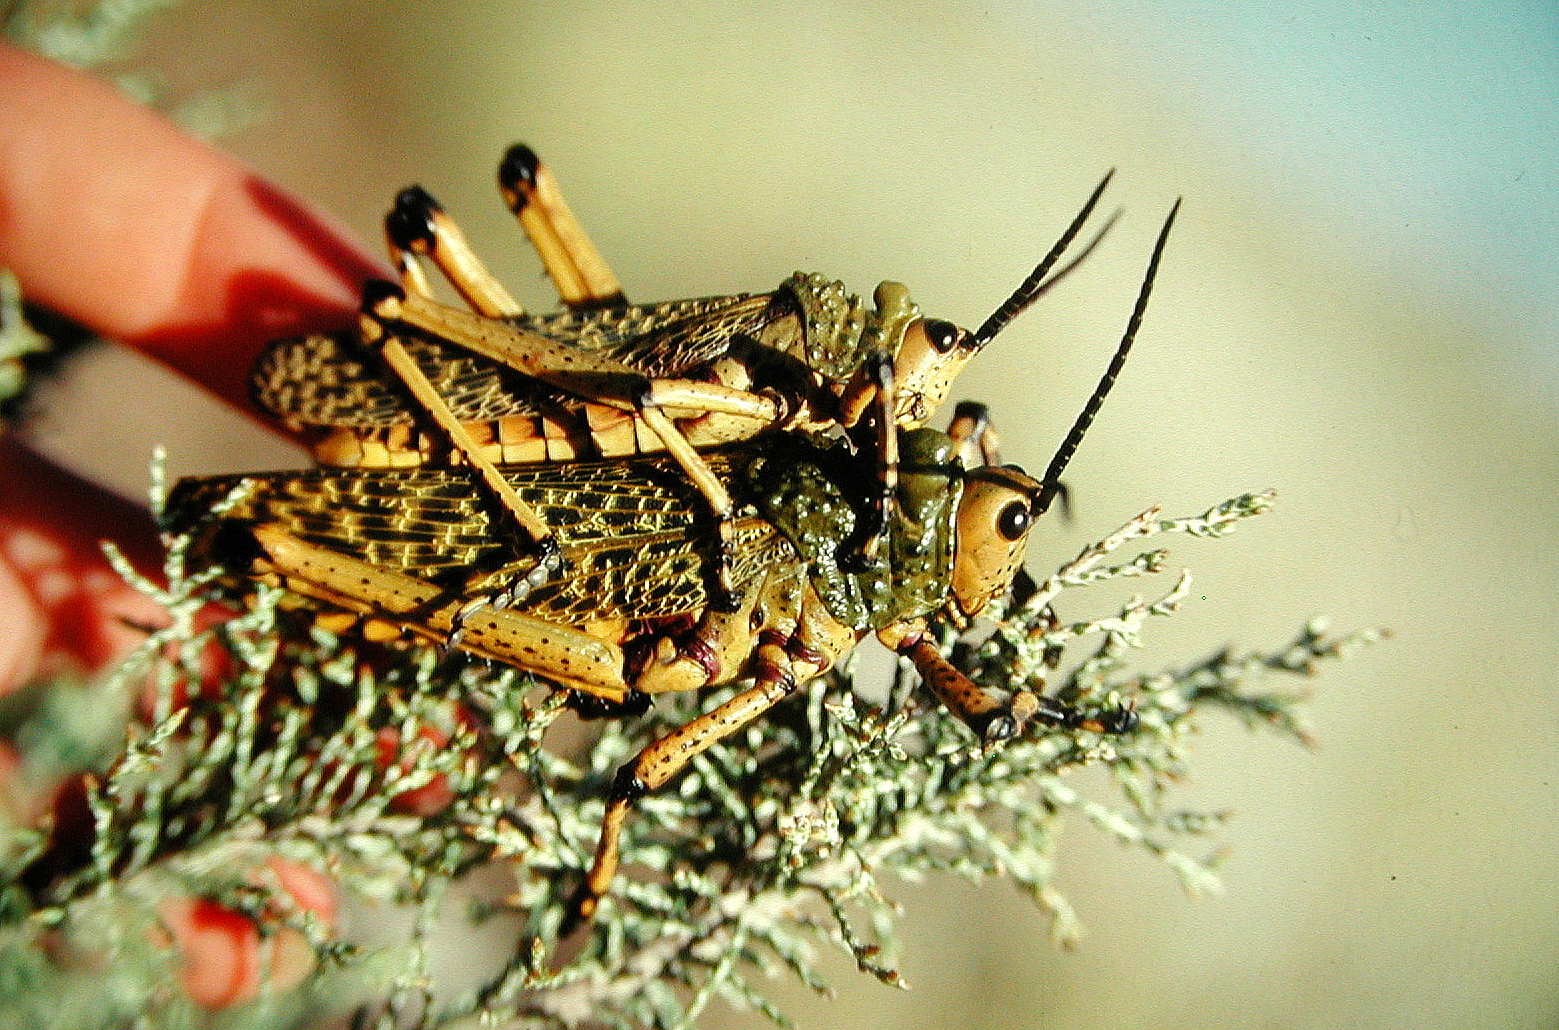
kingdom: Animalia
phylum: Arthropoda
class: Insecta
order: Orthoptera
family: Pyrgomorphidae
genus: Phymateus
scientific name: Phymateus leprosus
